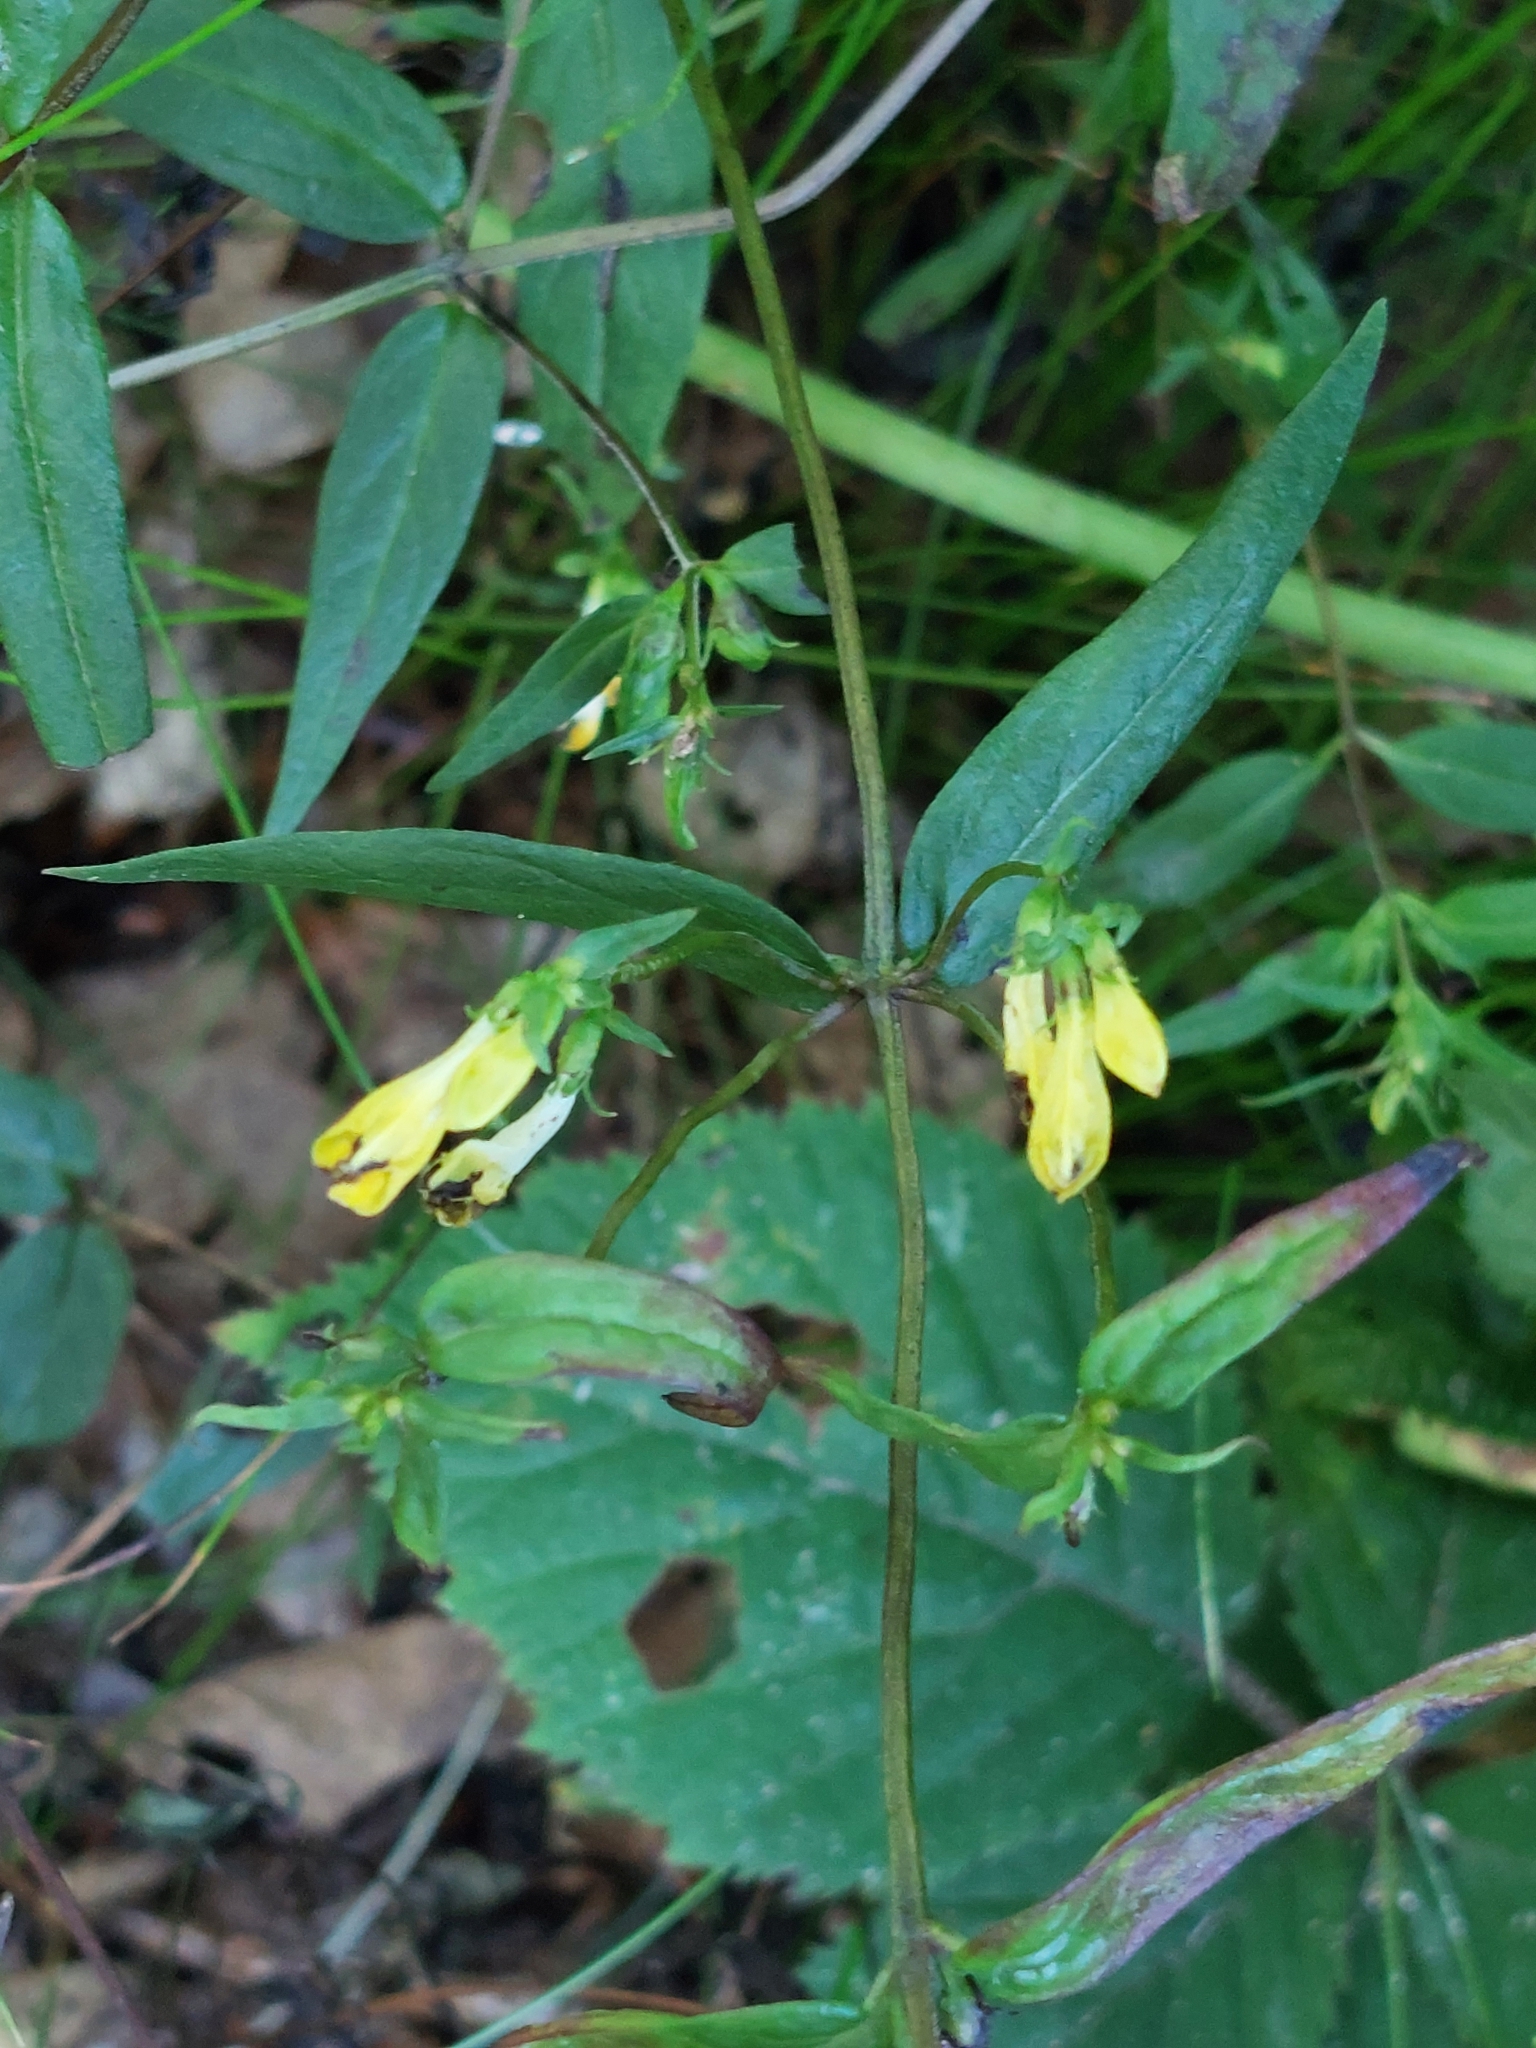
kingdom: Plantae
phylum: Tracheophyta
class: Magnoliopsida
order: Lamiales
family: Orobanchaceae
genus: Melampyrum
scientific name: Melampyrum pratense
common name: Common cow-wheat
